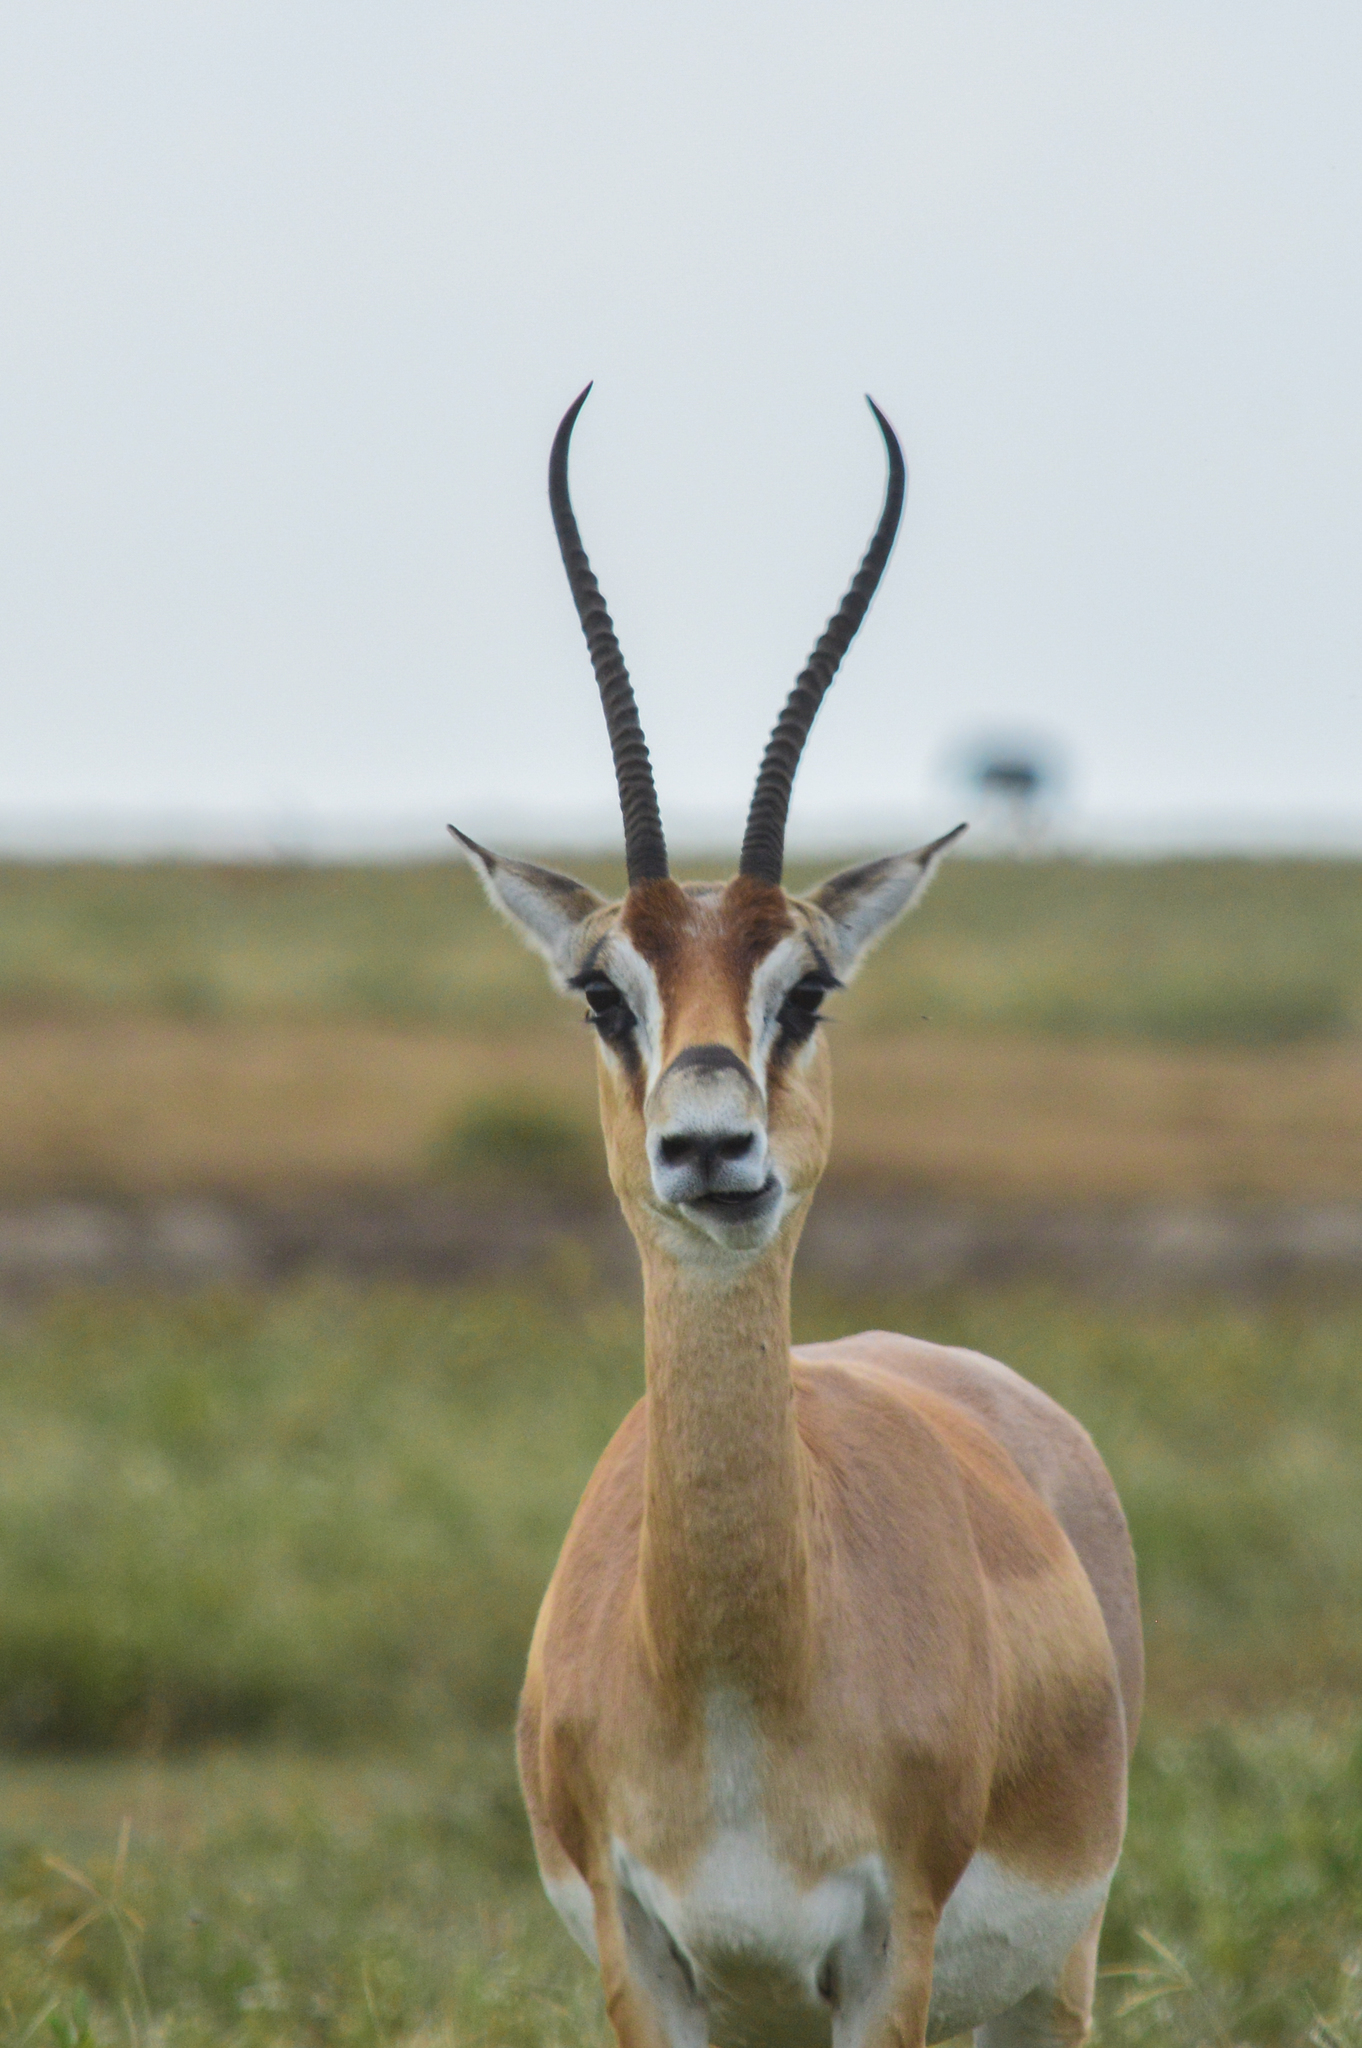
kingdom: Animalia
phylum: Chordata
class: Mammalia
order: Artiodactyla
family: Bovidae
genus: Nanger
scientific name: Nanger granti
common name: Grant's gazelle
